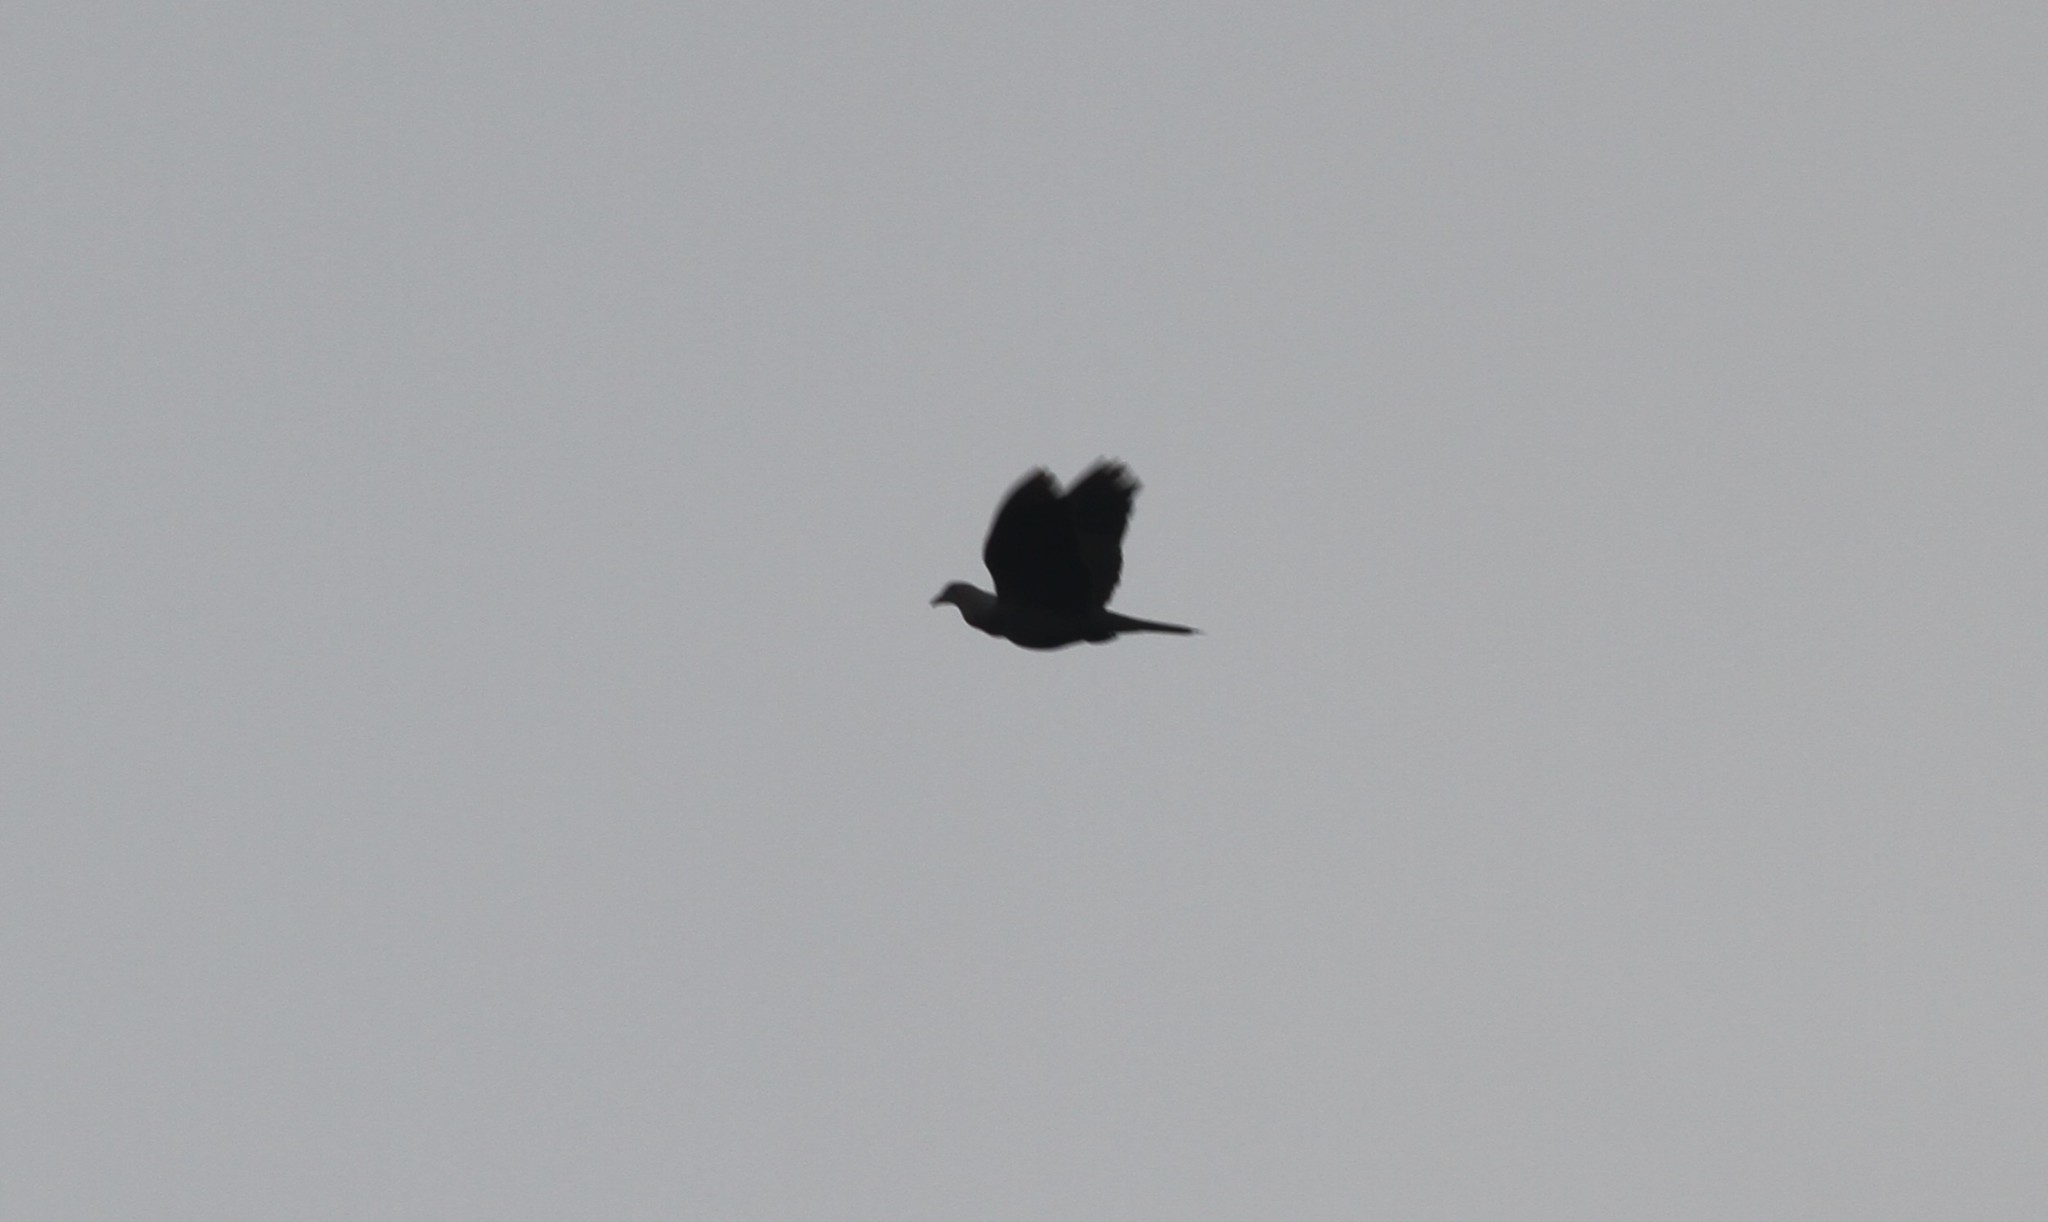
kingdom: Animalia
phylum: Chordata
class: Aves
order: Columbiformes
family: Columbidae
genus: Ducula
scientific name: Ducula badia
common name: Mountain imperial pigeon
